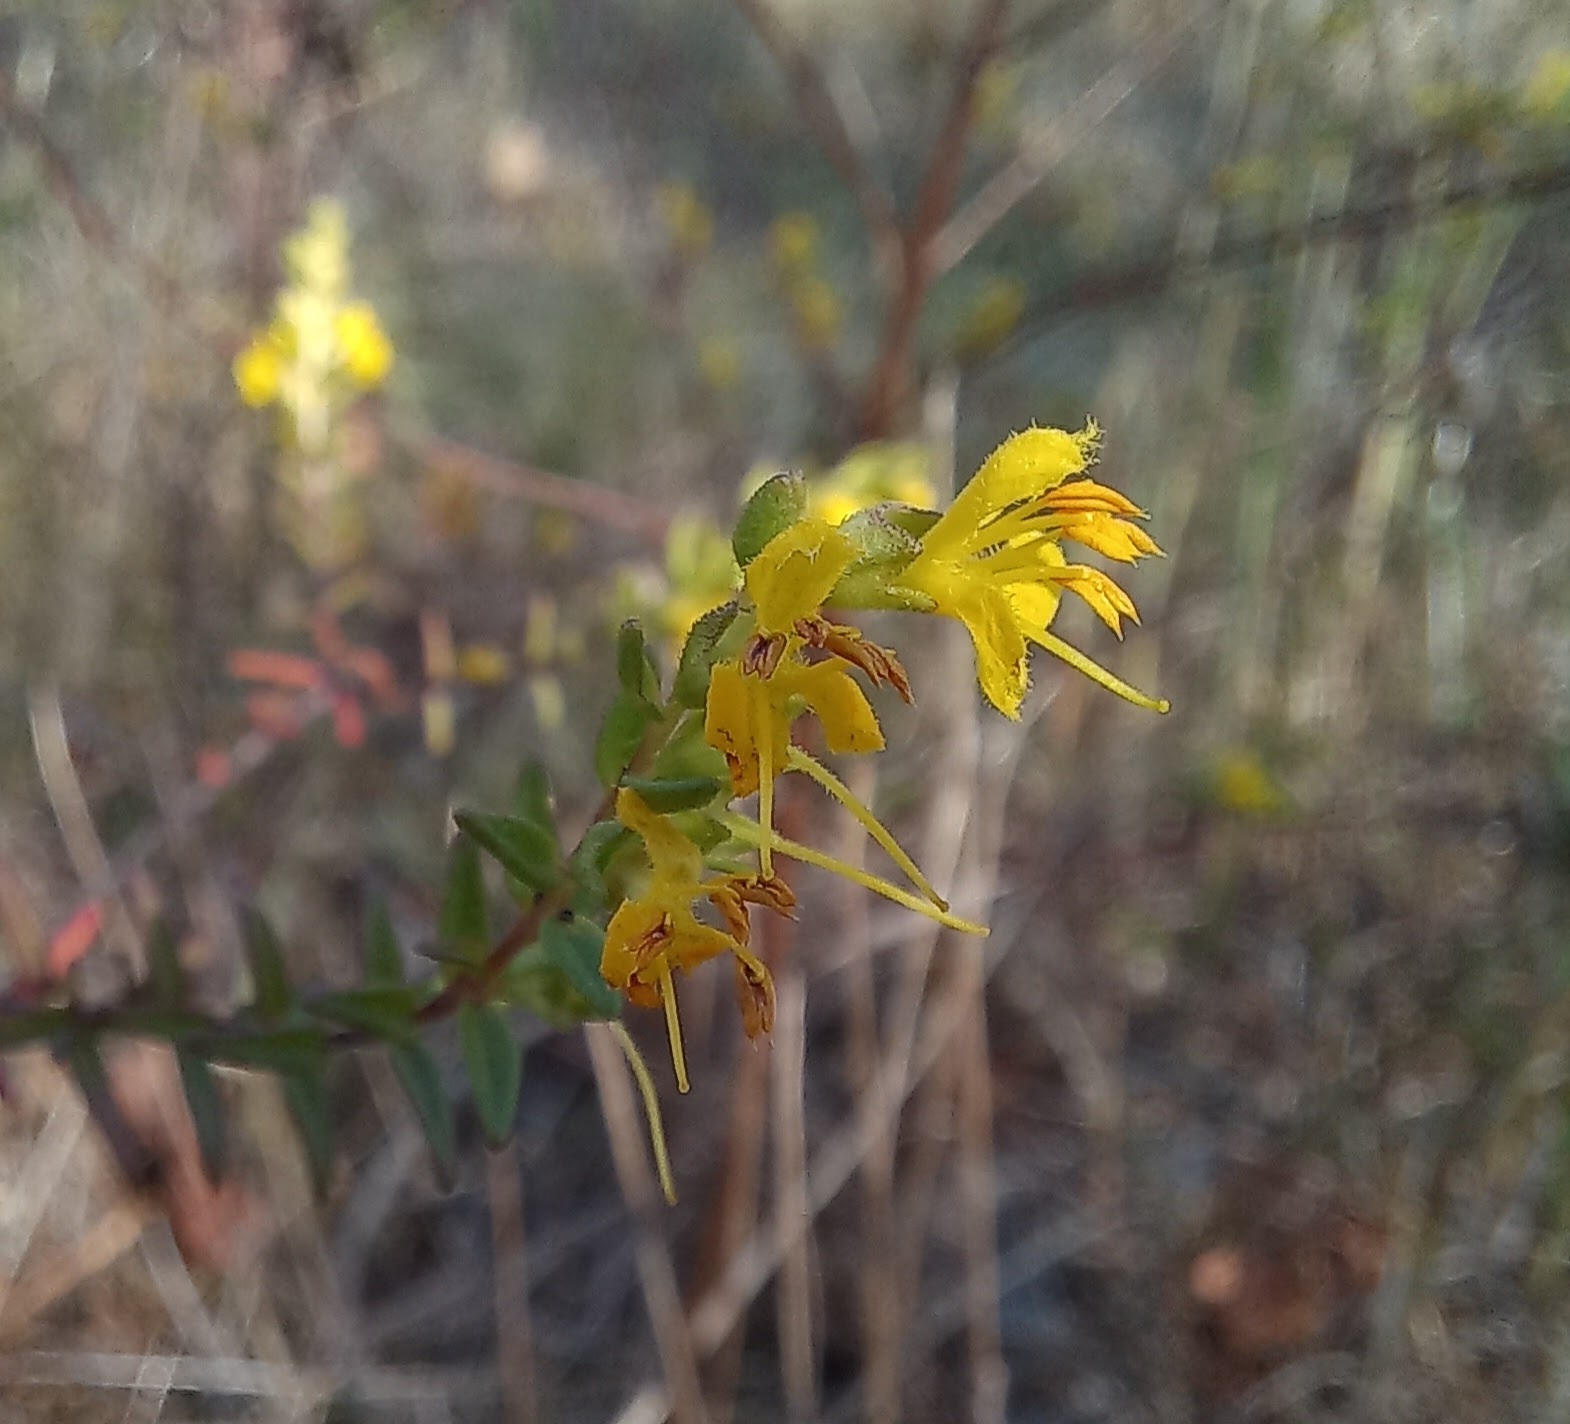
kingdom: Plantae
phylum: Tracheophyta
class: Magnoliopsida
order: Lamiales
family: Orobanchaceae
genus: Odontites
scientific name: Odontites luteus
